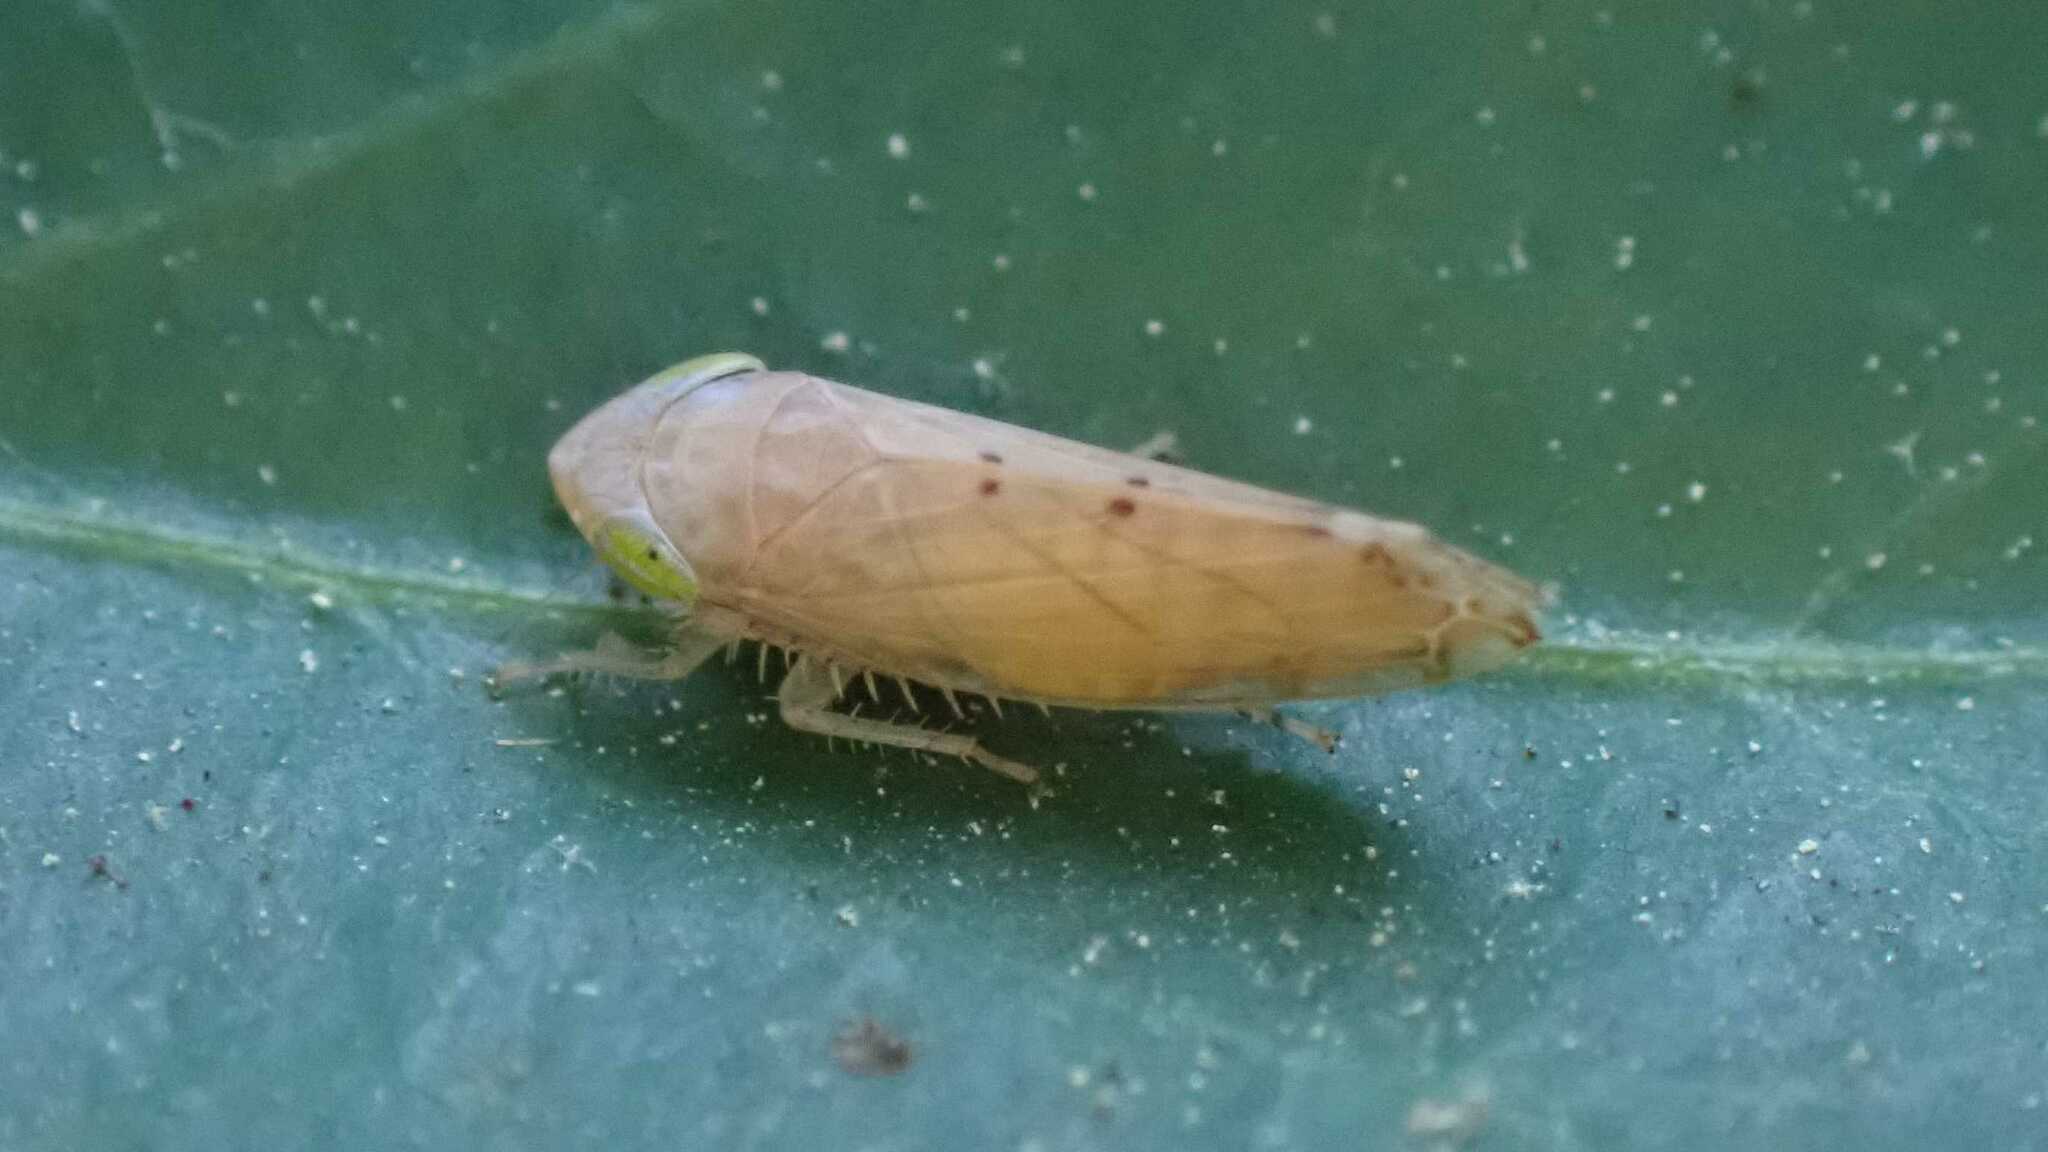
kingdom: Animalia
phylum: Arthropoda
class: Insecta
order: Hemiptera
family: Cicadellidae
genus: Synophropsis
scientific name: Synophropsis lauri
